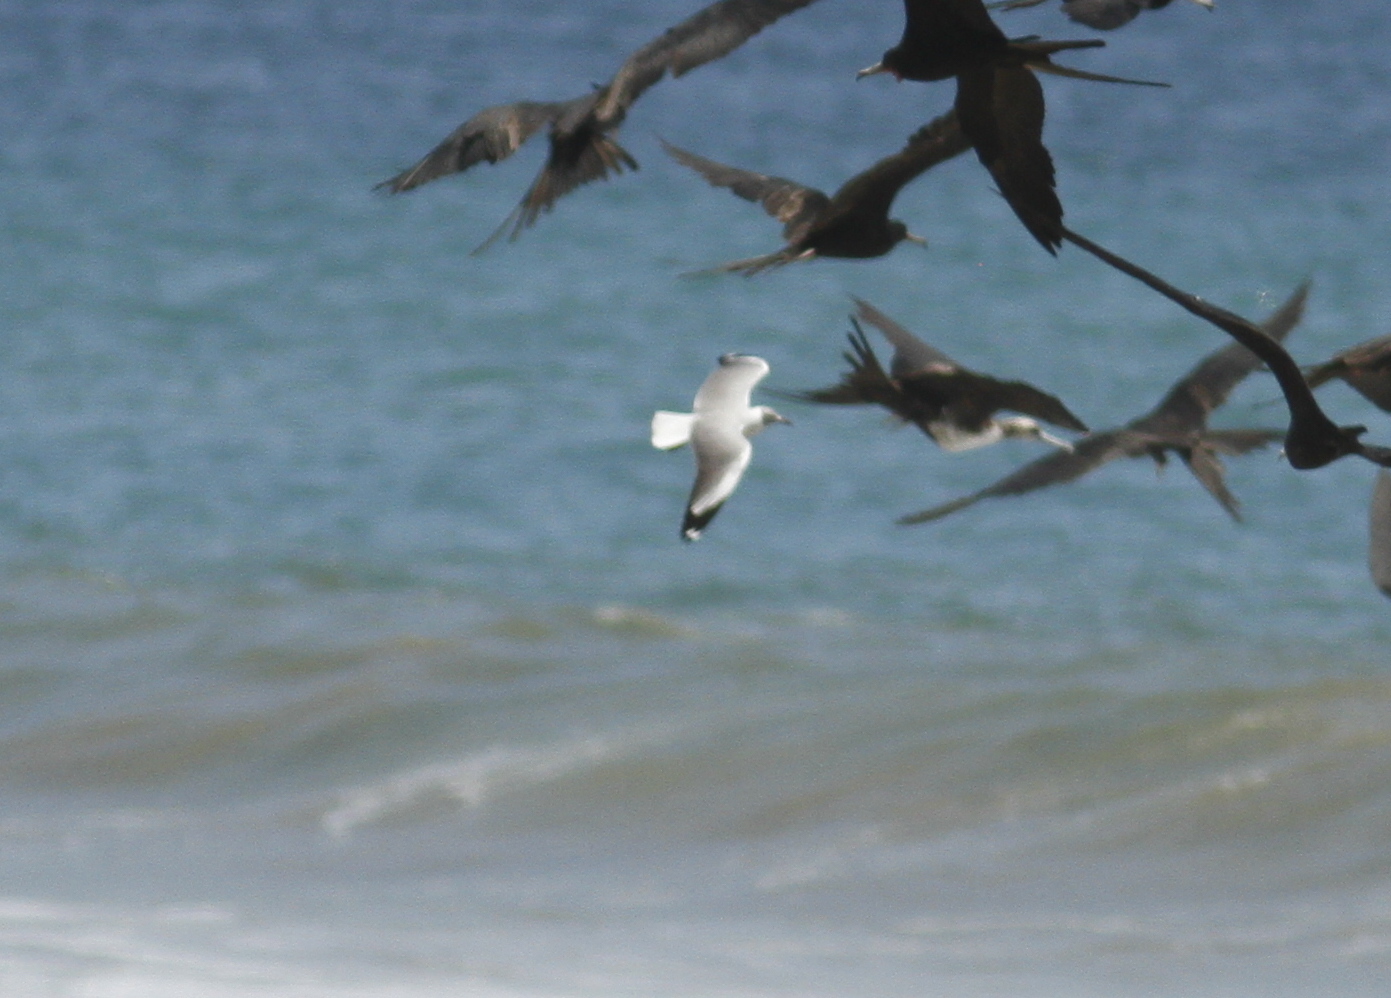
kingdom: Animalia
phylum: Chordata
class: Aves
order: Charadriiformes
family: Laridae
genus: Chroicocephalus
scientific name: Chroicocephalus cirrocephalus
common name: Grey-headed gull
